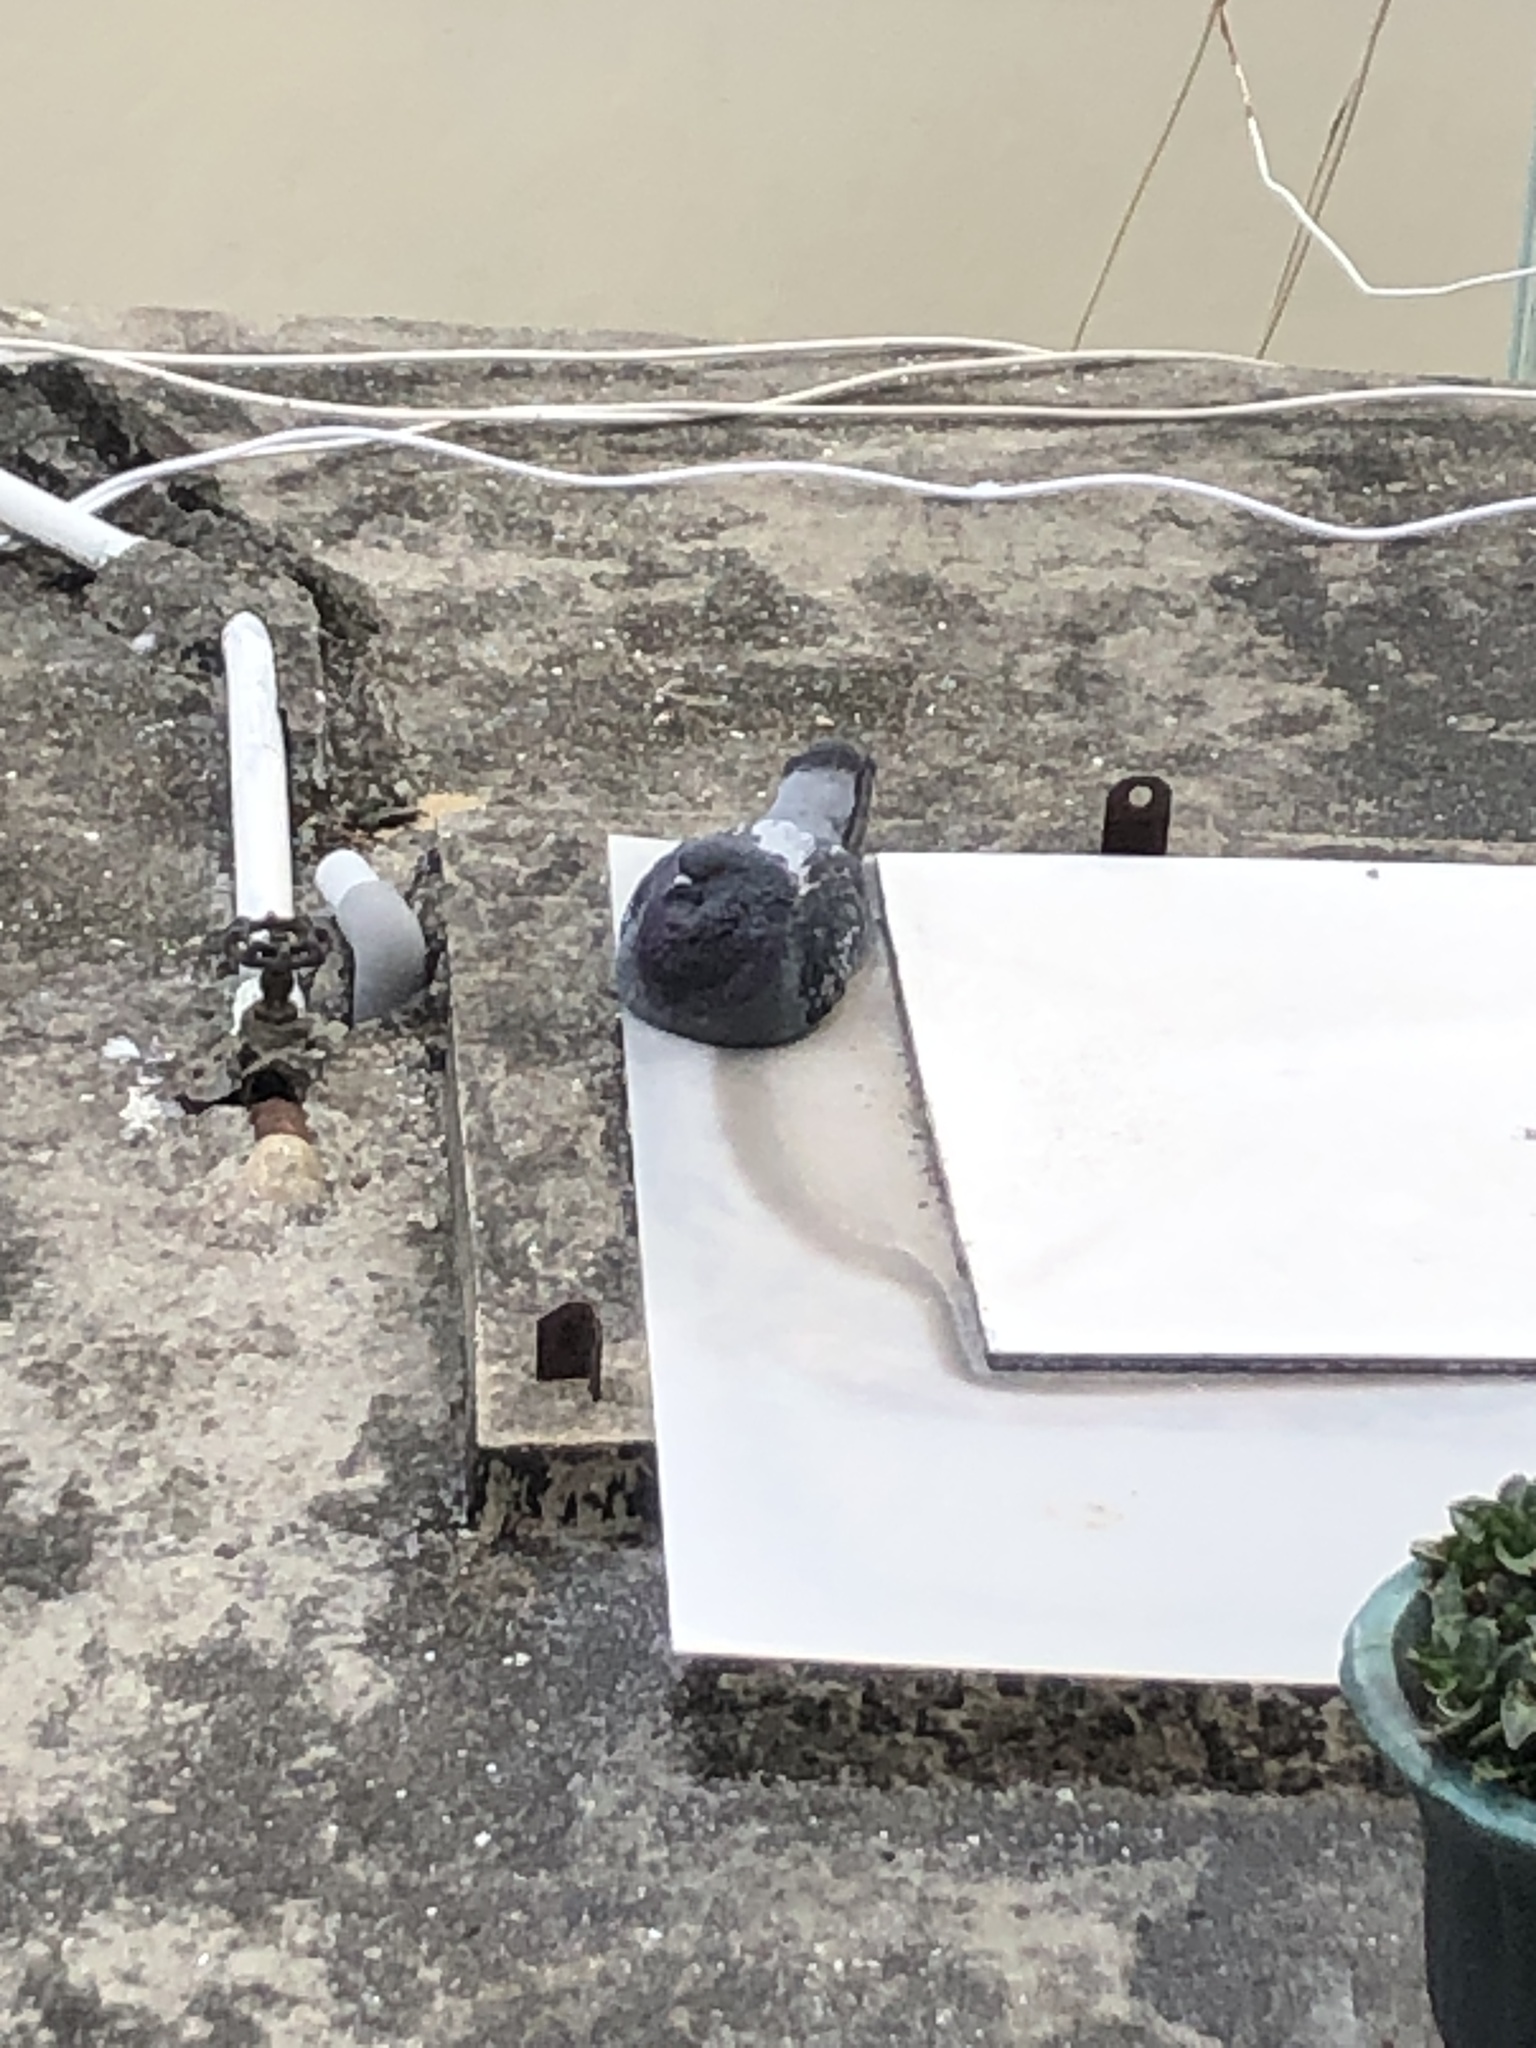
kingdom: Animalia
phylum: Chordata
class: Aves
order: Columbiformes
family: Columbidae
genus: Columba
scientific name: Columba livia
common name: Rock pigeon
